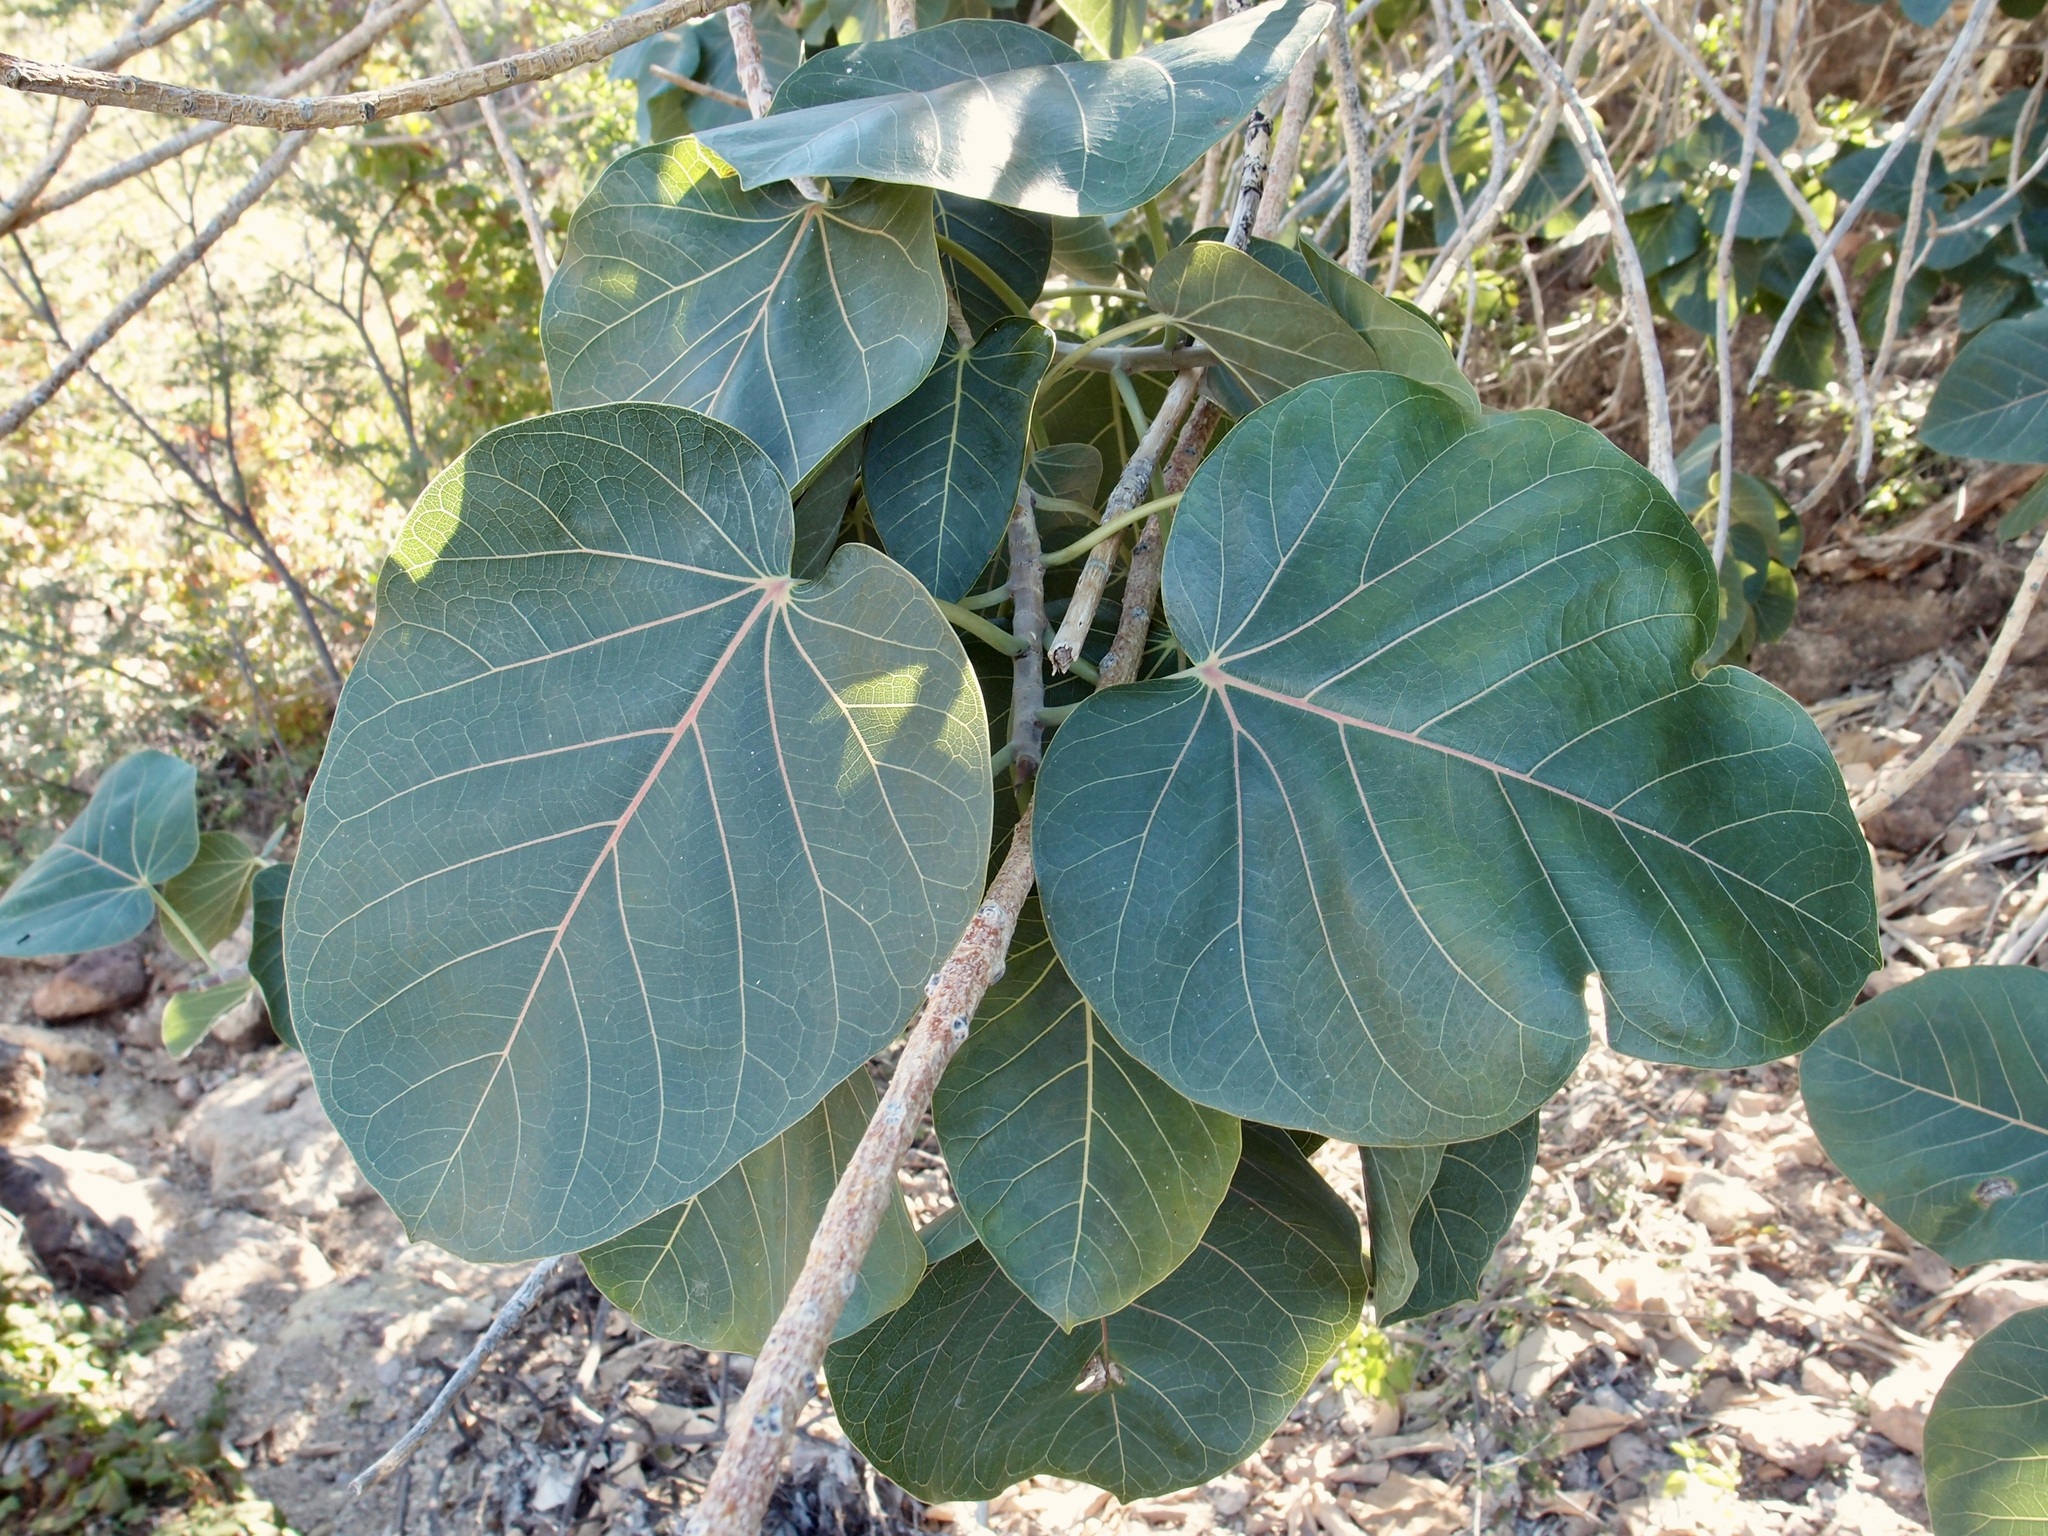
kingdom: Plantae
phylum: Tracheophyta
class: Magnoliopsida
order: Rosales
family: Moraceae
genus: Ficus
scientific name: Ficus petiolaris
